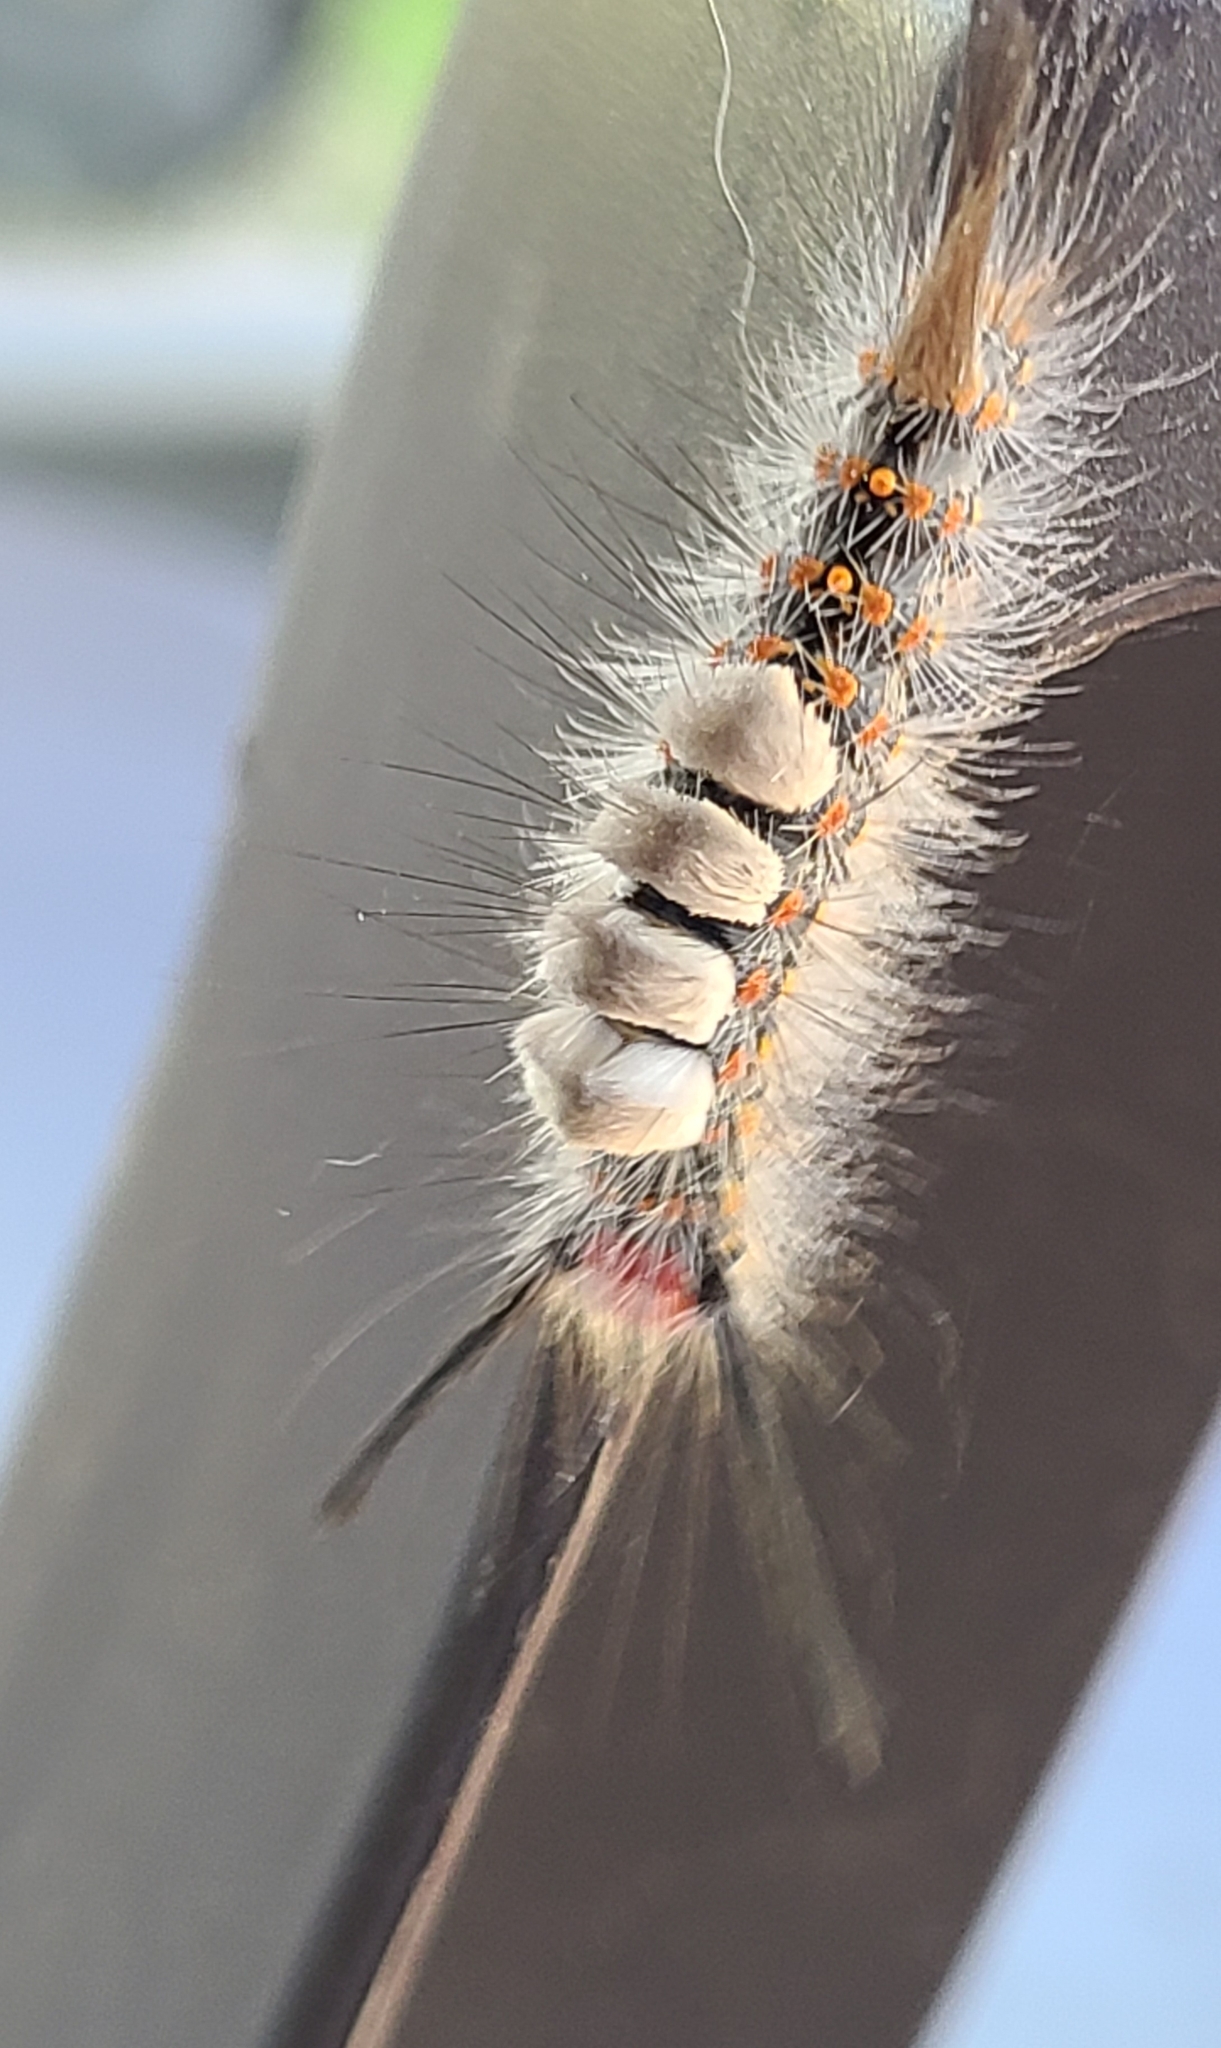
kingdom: Animalia
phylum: Arthropoda
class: Insecta
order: Lepidoptera
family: Erebidae
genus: Orgyia
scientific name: Orgyia detrita
